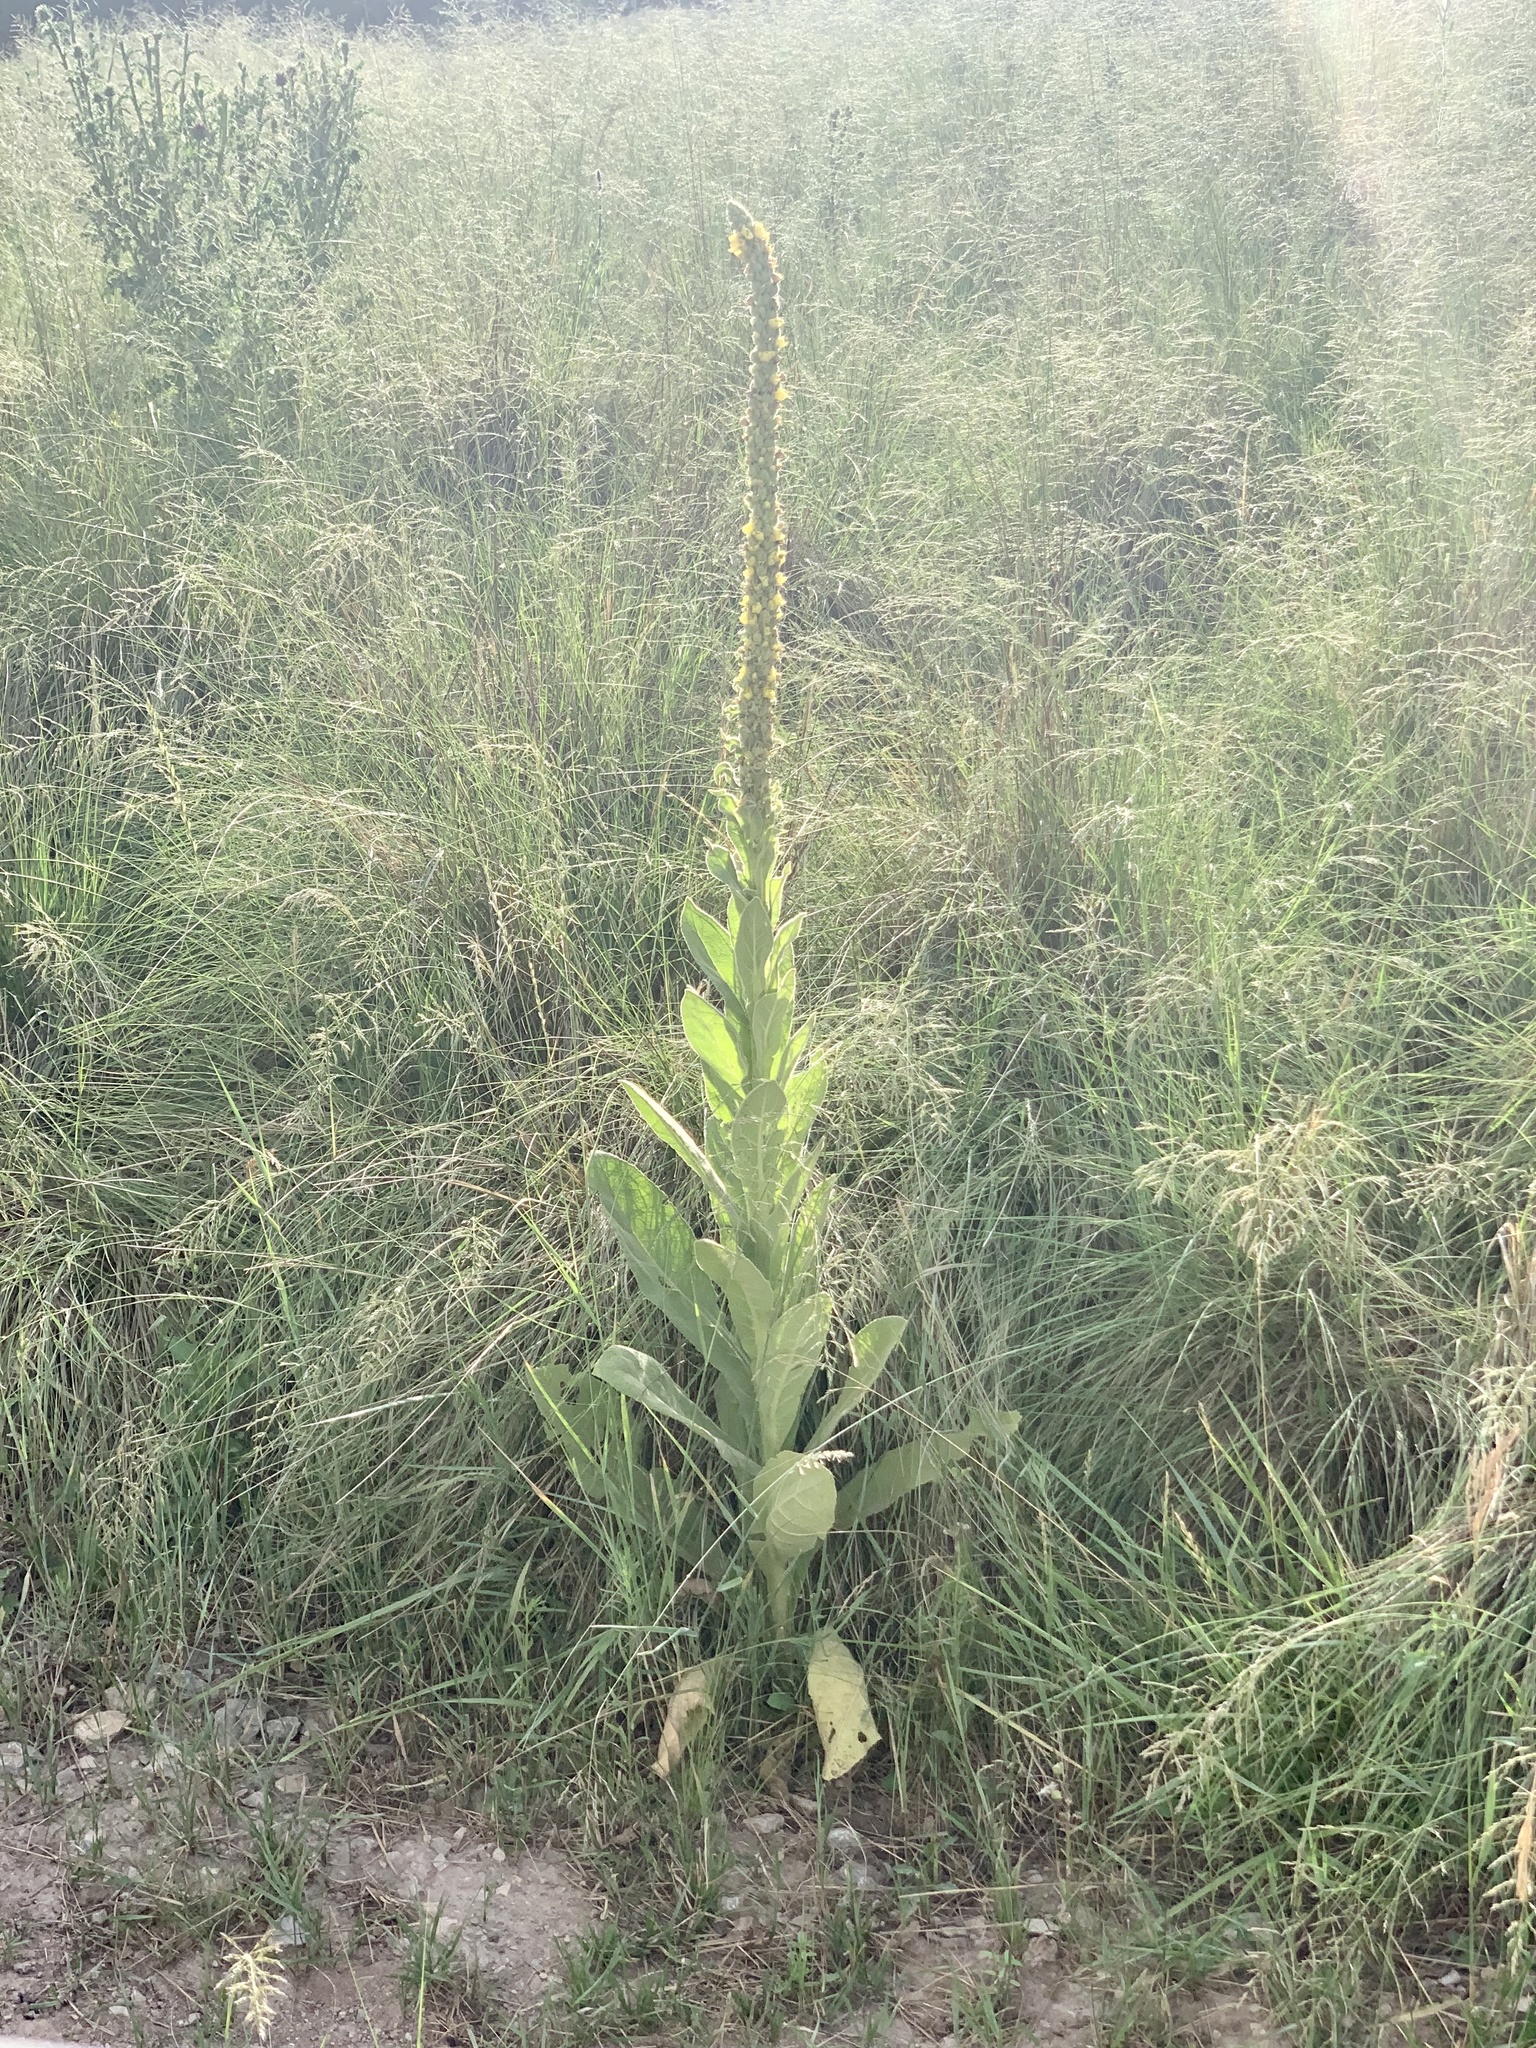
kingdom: Plantae
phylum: Tracheophyta
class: Magnoliopsida
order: Lamiales
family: Scrophulariaceae
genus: Verbascum
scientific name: Verbascum thapsus
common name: Common mullein
